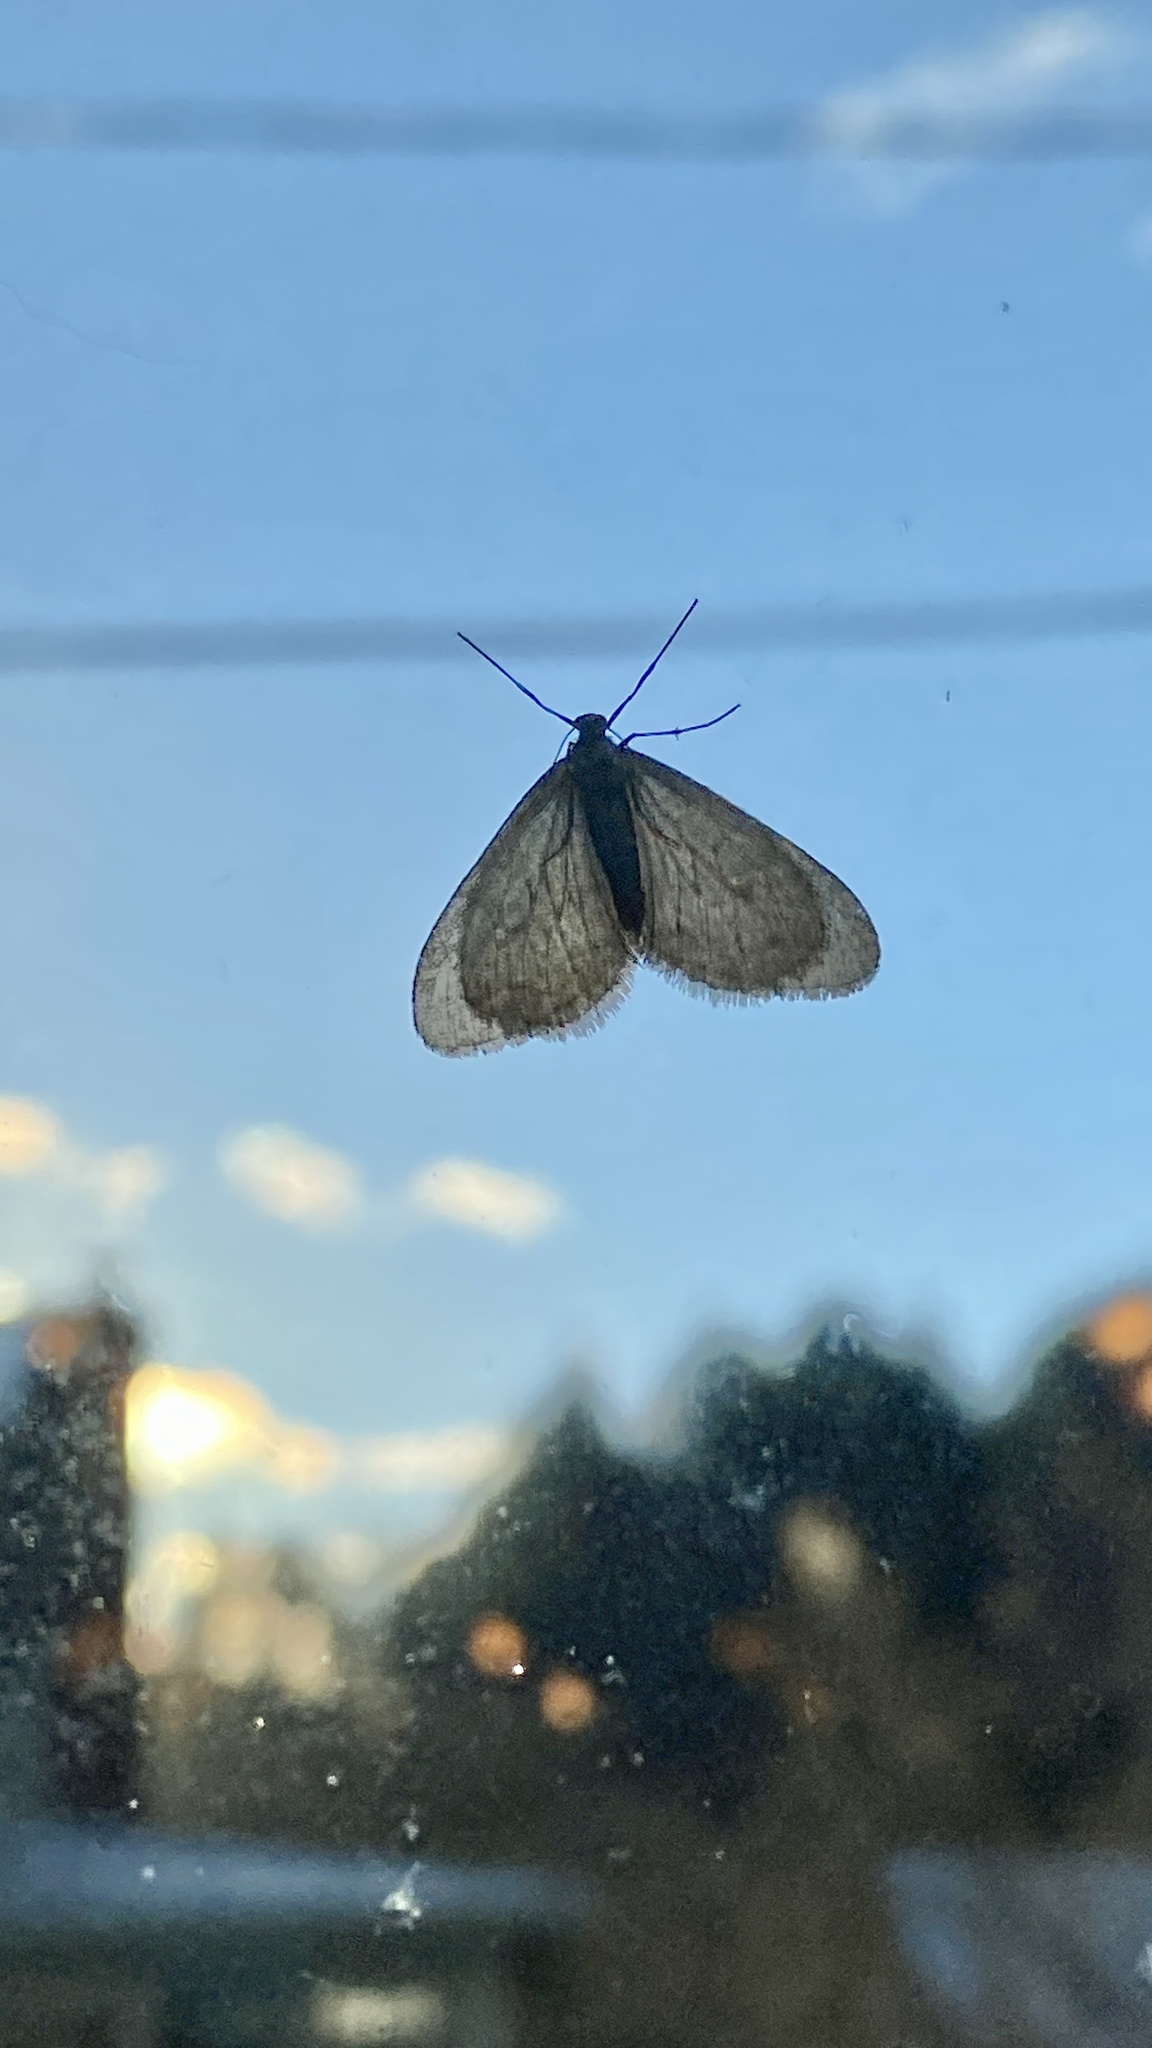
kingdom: Animalia
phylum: Arthropoda
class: Insecta
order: Lepidoptera
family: Geometridae
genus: Operophtera
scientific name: Operophtera bruceata
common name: Bruce spanworm
